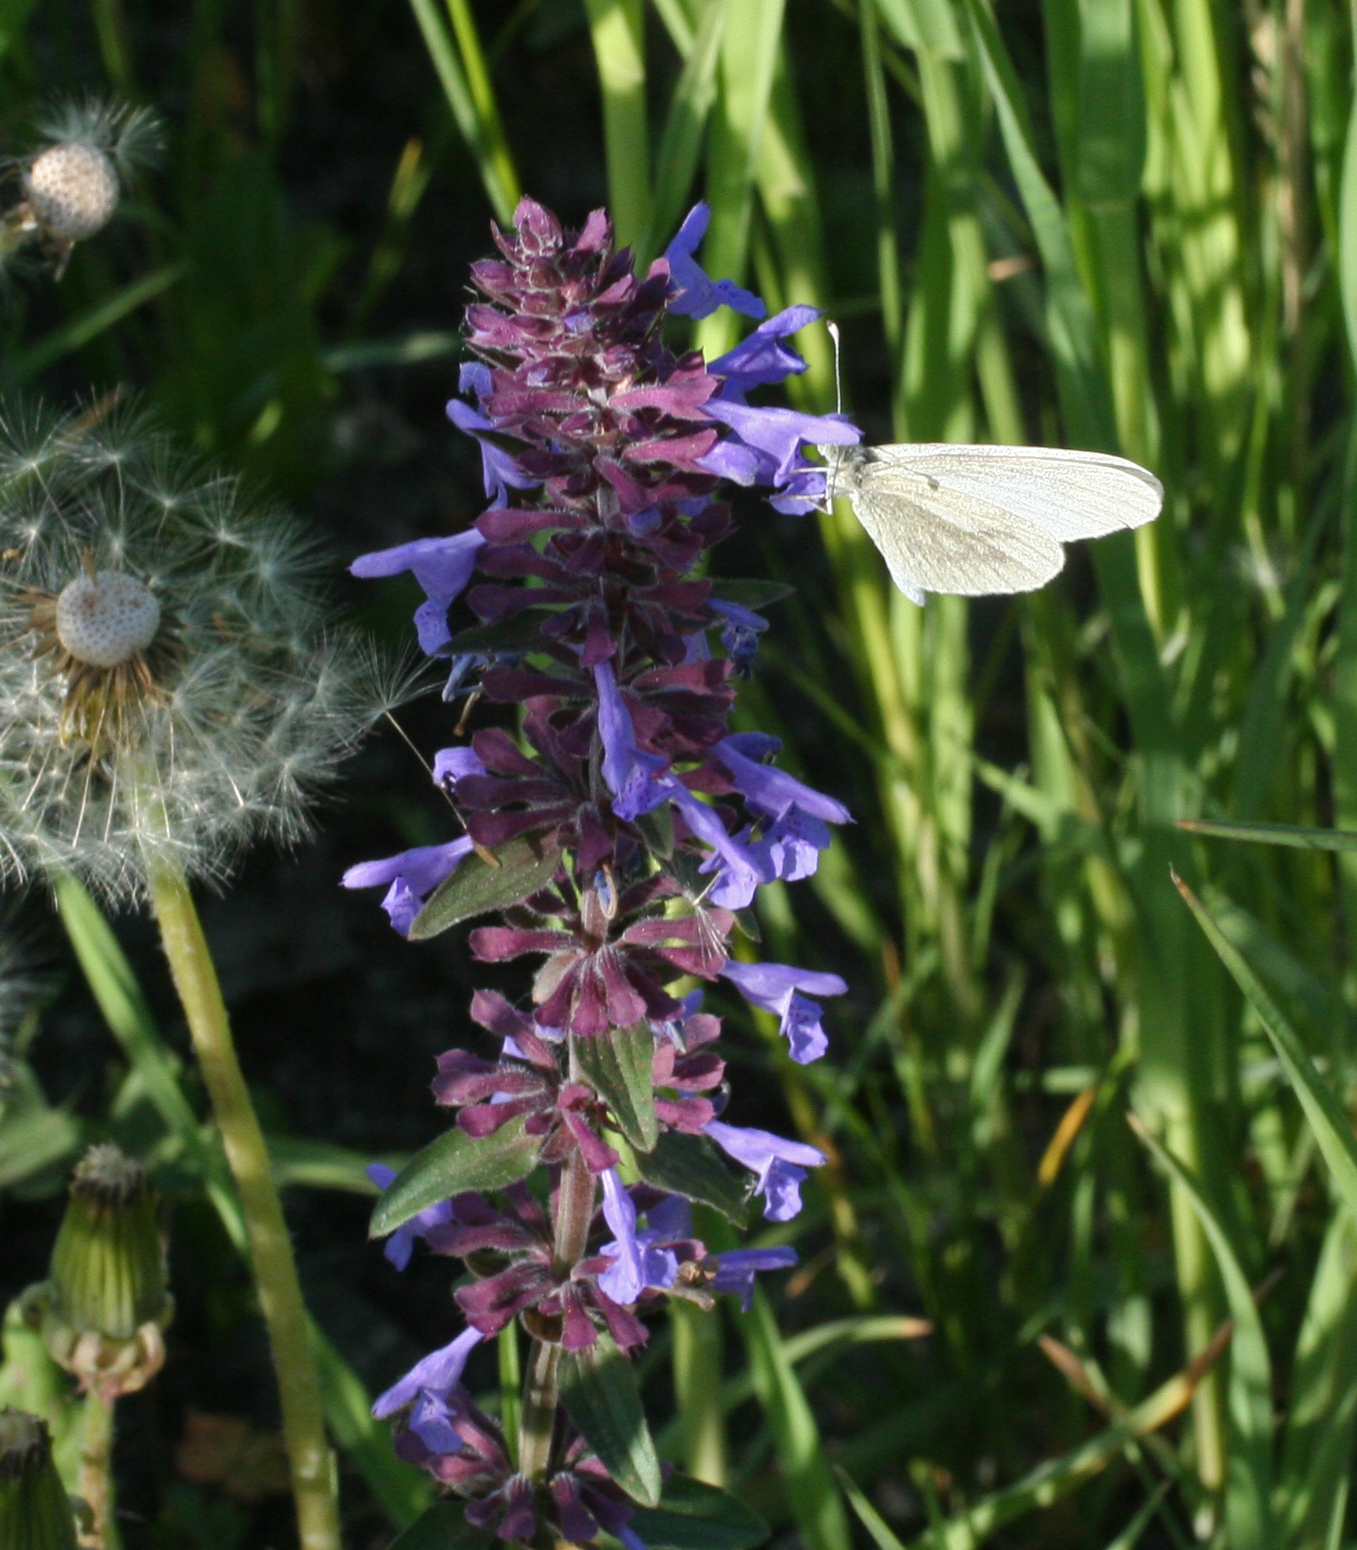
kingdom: Plantae
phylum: Tracheophyta
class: Magnoliopsida
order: Lamiales
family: Lamiaceae
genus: Dracocephalum
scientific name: Dracocephalum nutans
